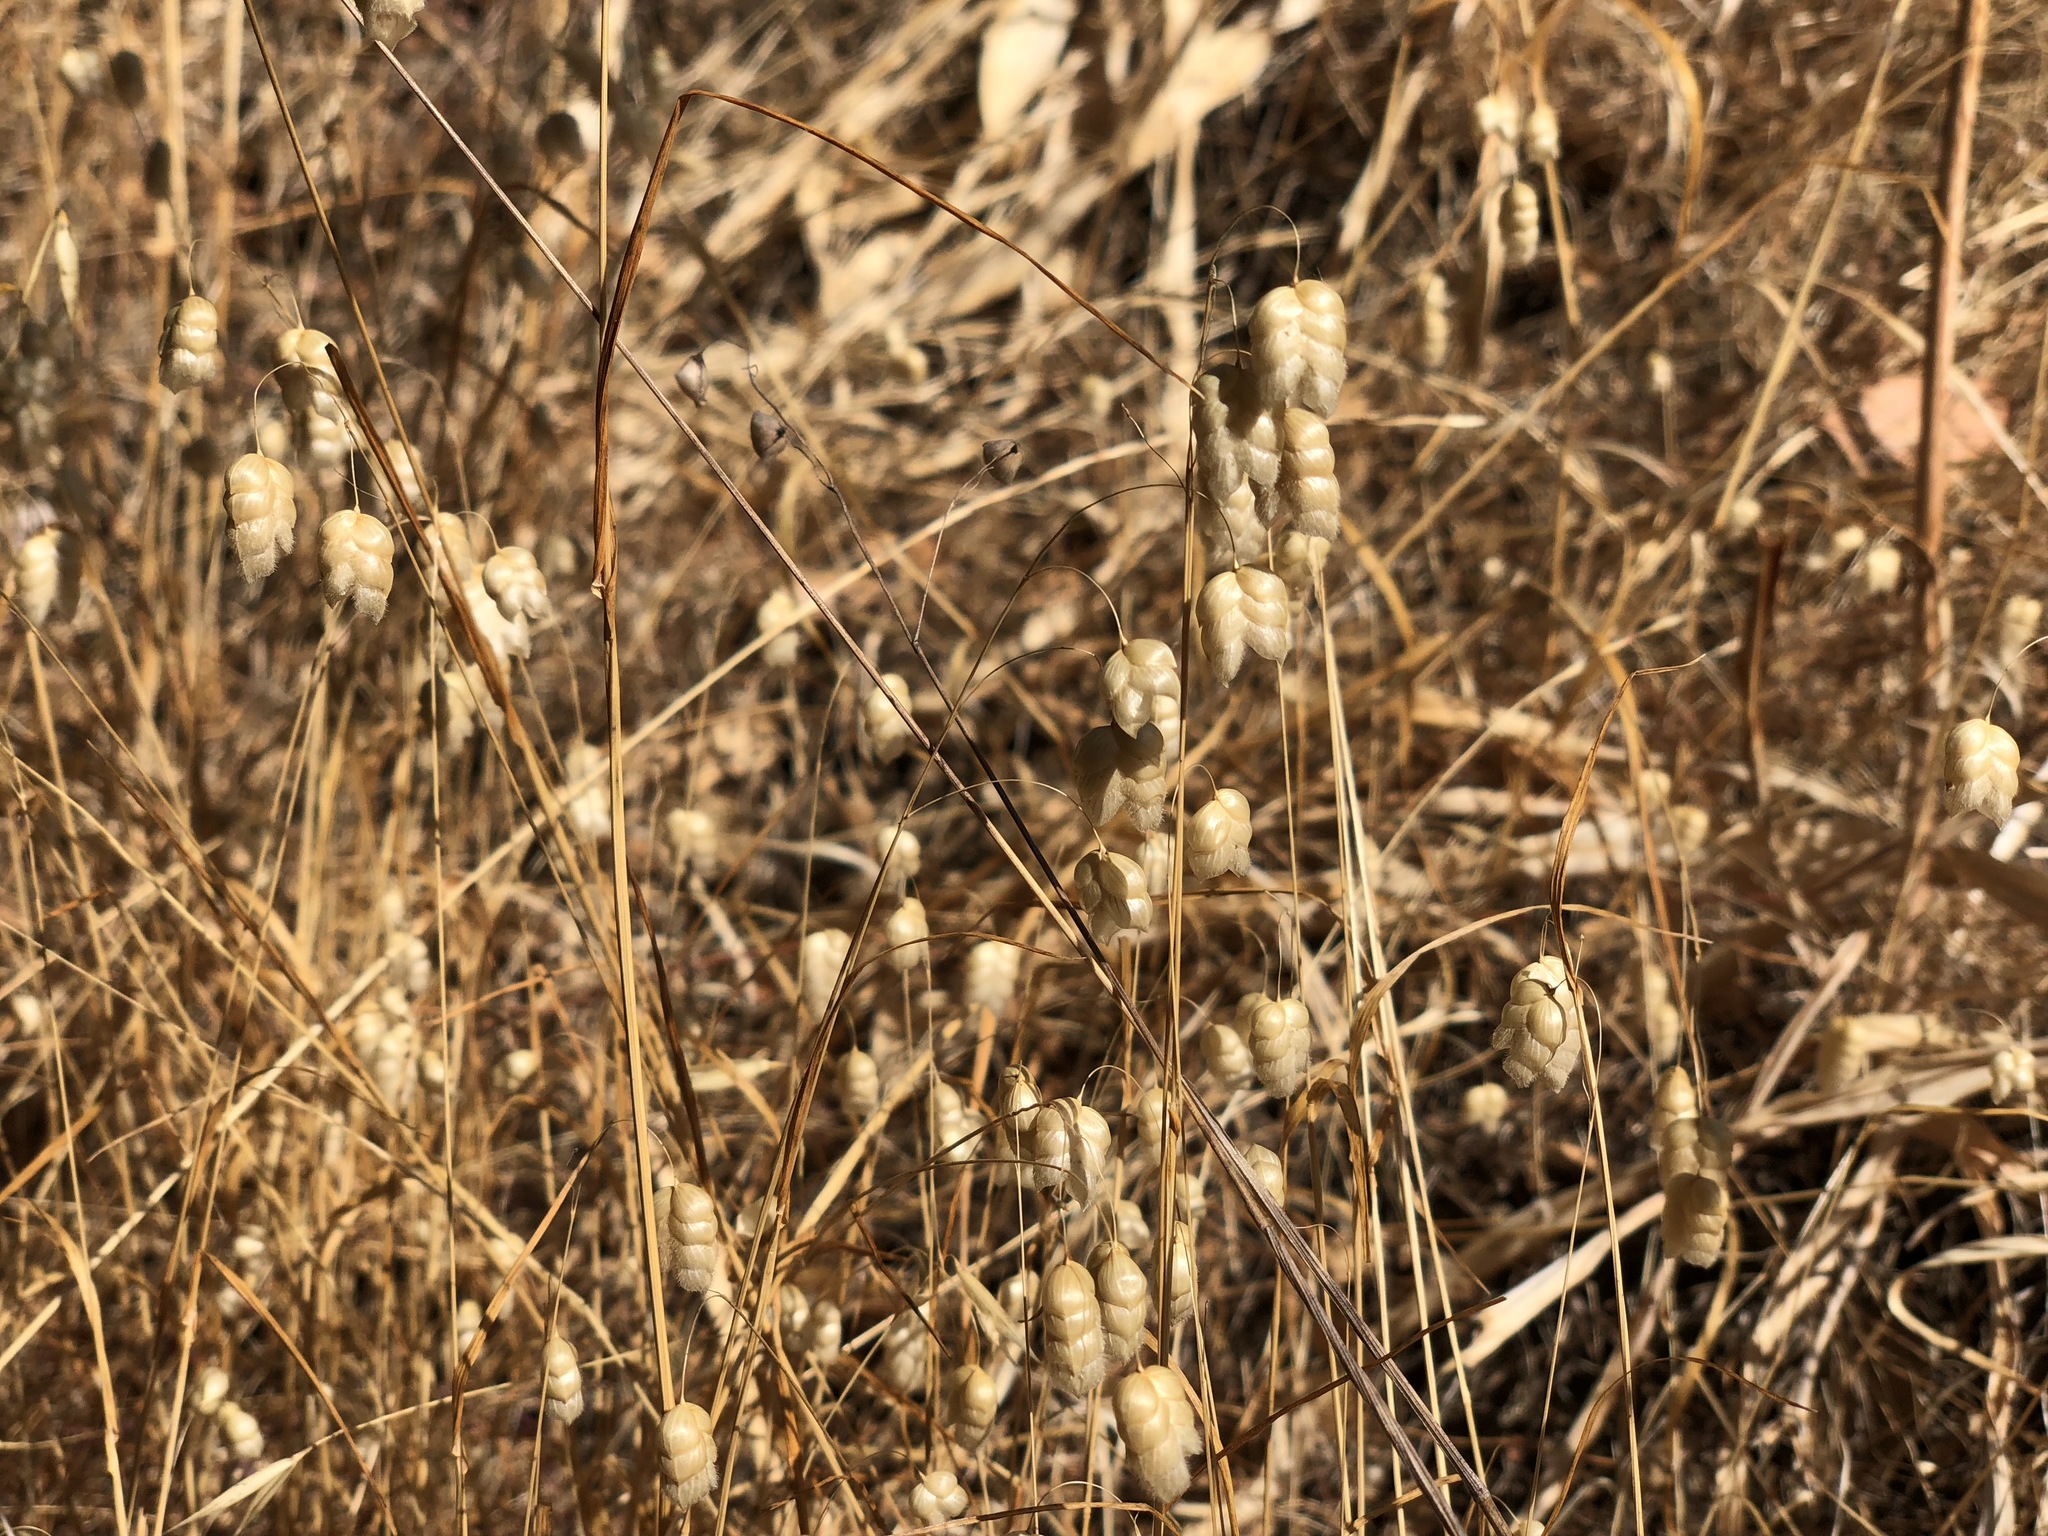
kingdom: Plantae
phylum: Tracheophyta
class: Liliopsida
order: Poales
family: Poaceae
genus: Briza
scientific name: Briza maxima
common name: Big quakinggrass
